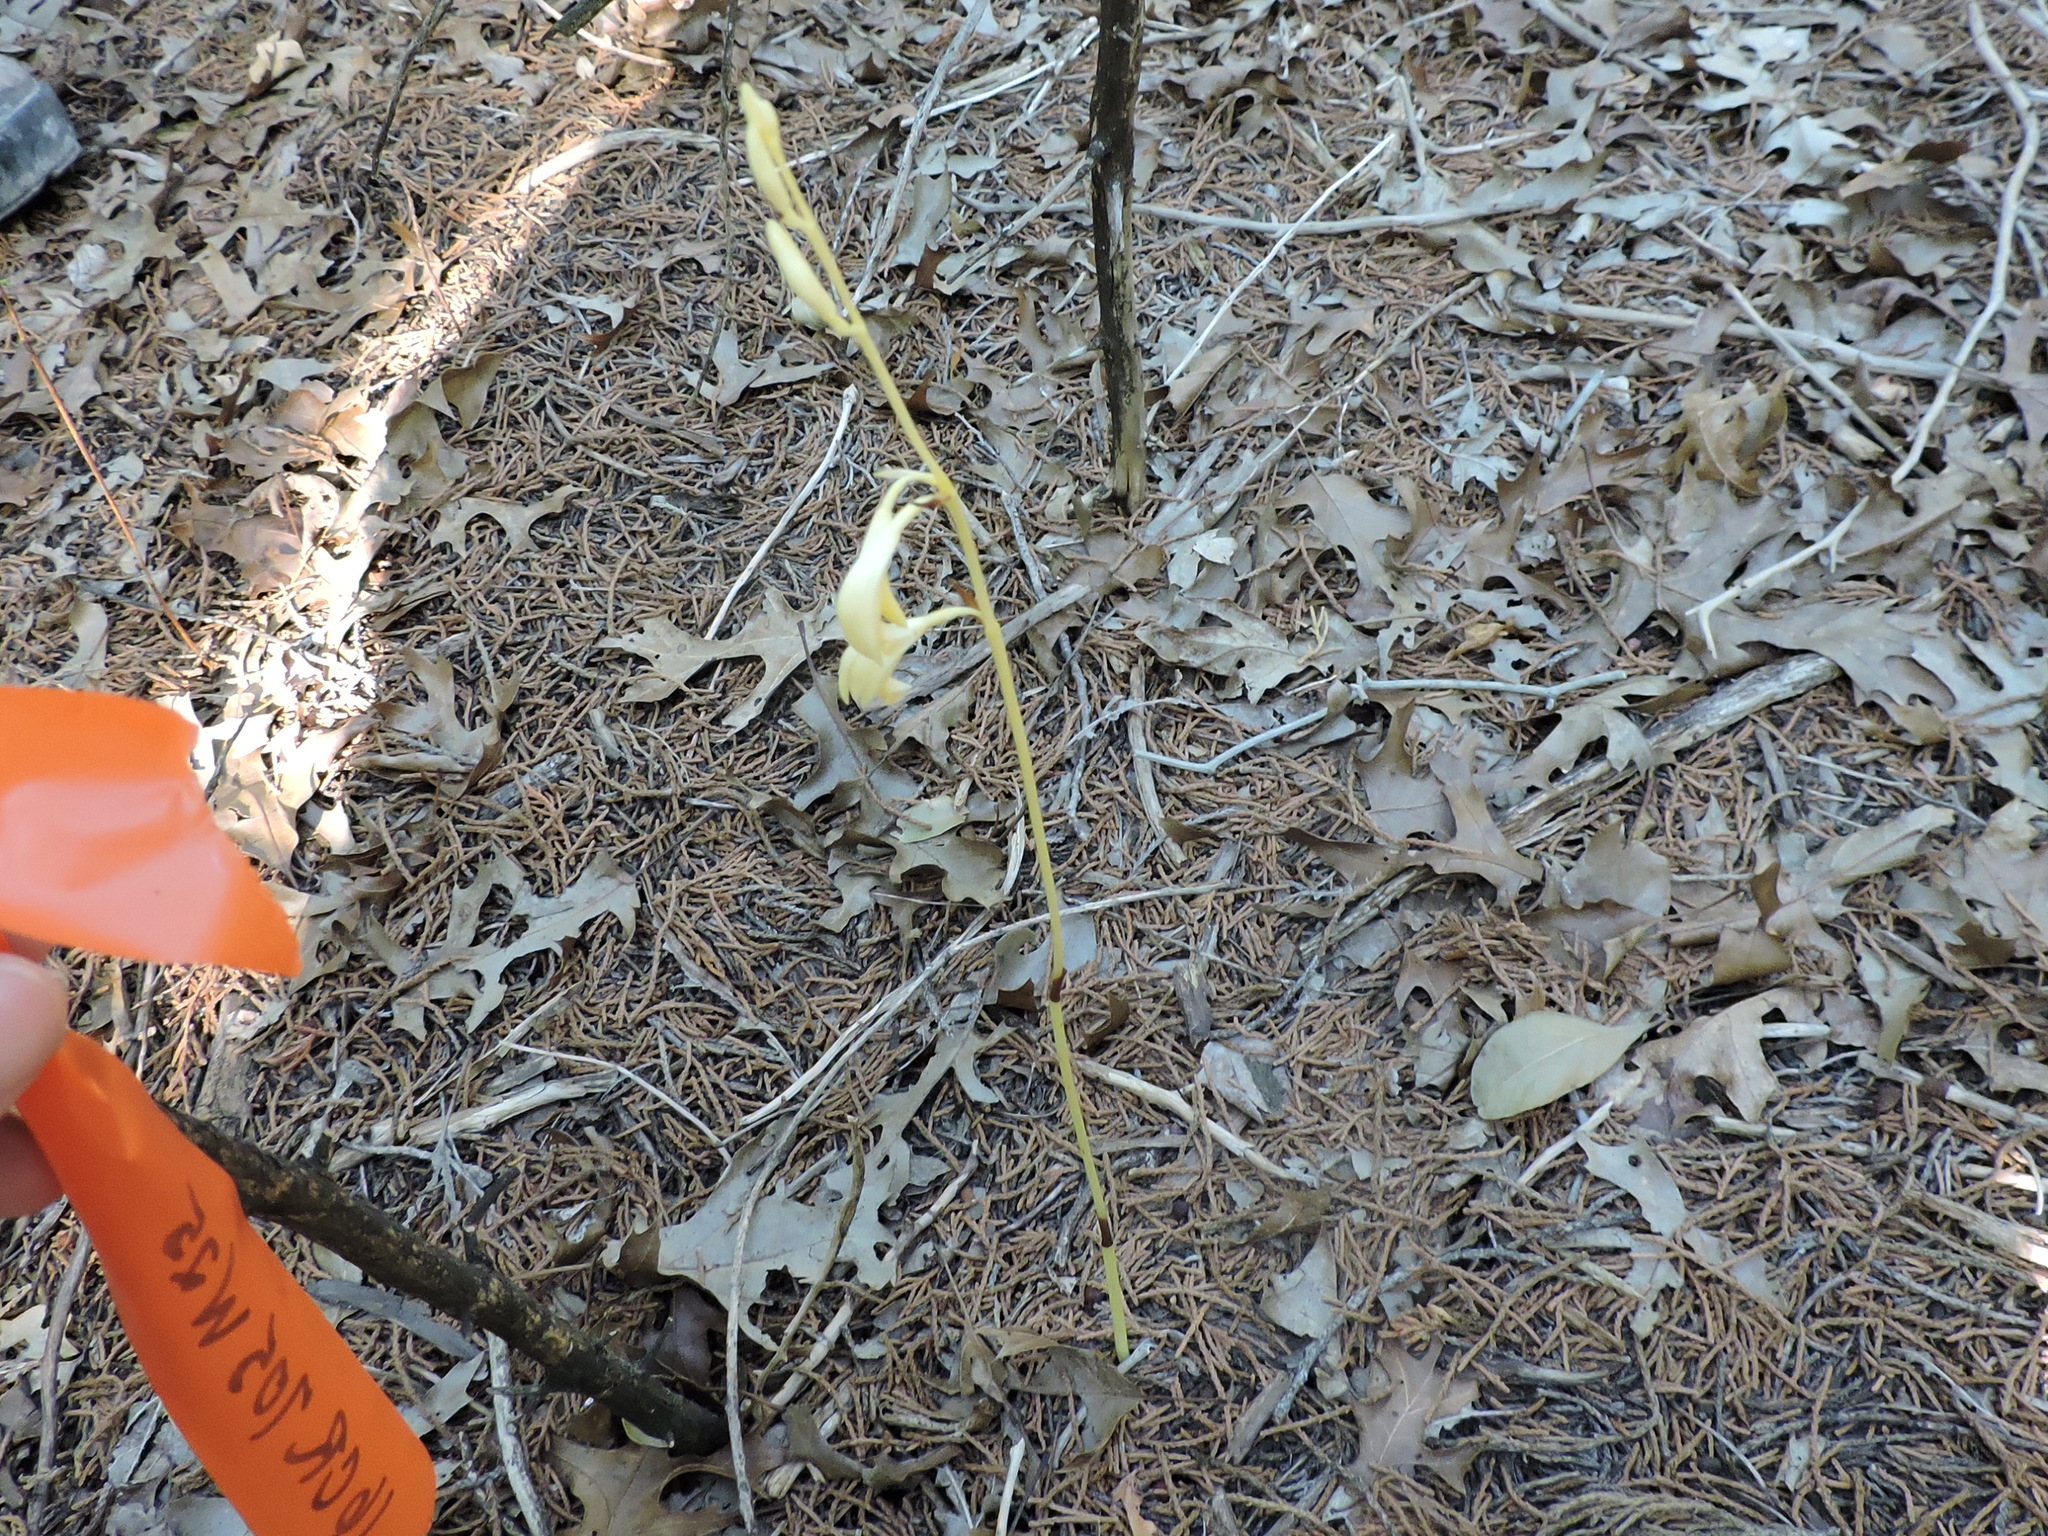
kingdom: Plantae
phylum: Tracheophyta
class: Liliopsida
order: Asparagales
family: Orchidaceae
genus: Bletia
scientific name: Bletia warnockii
